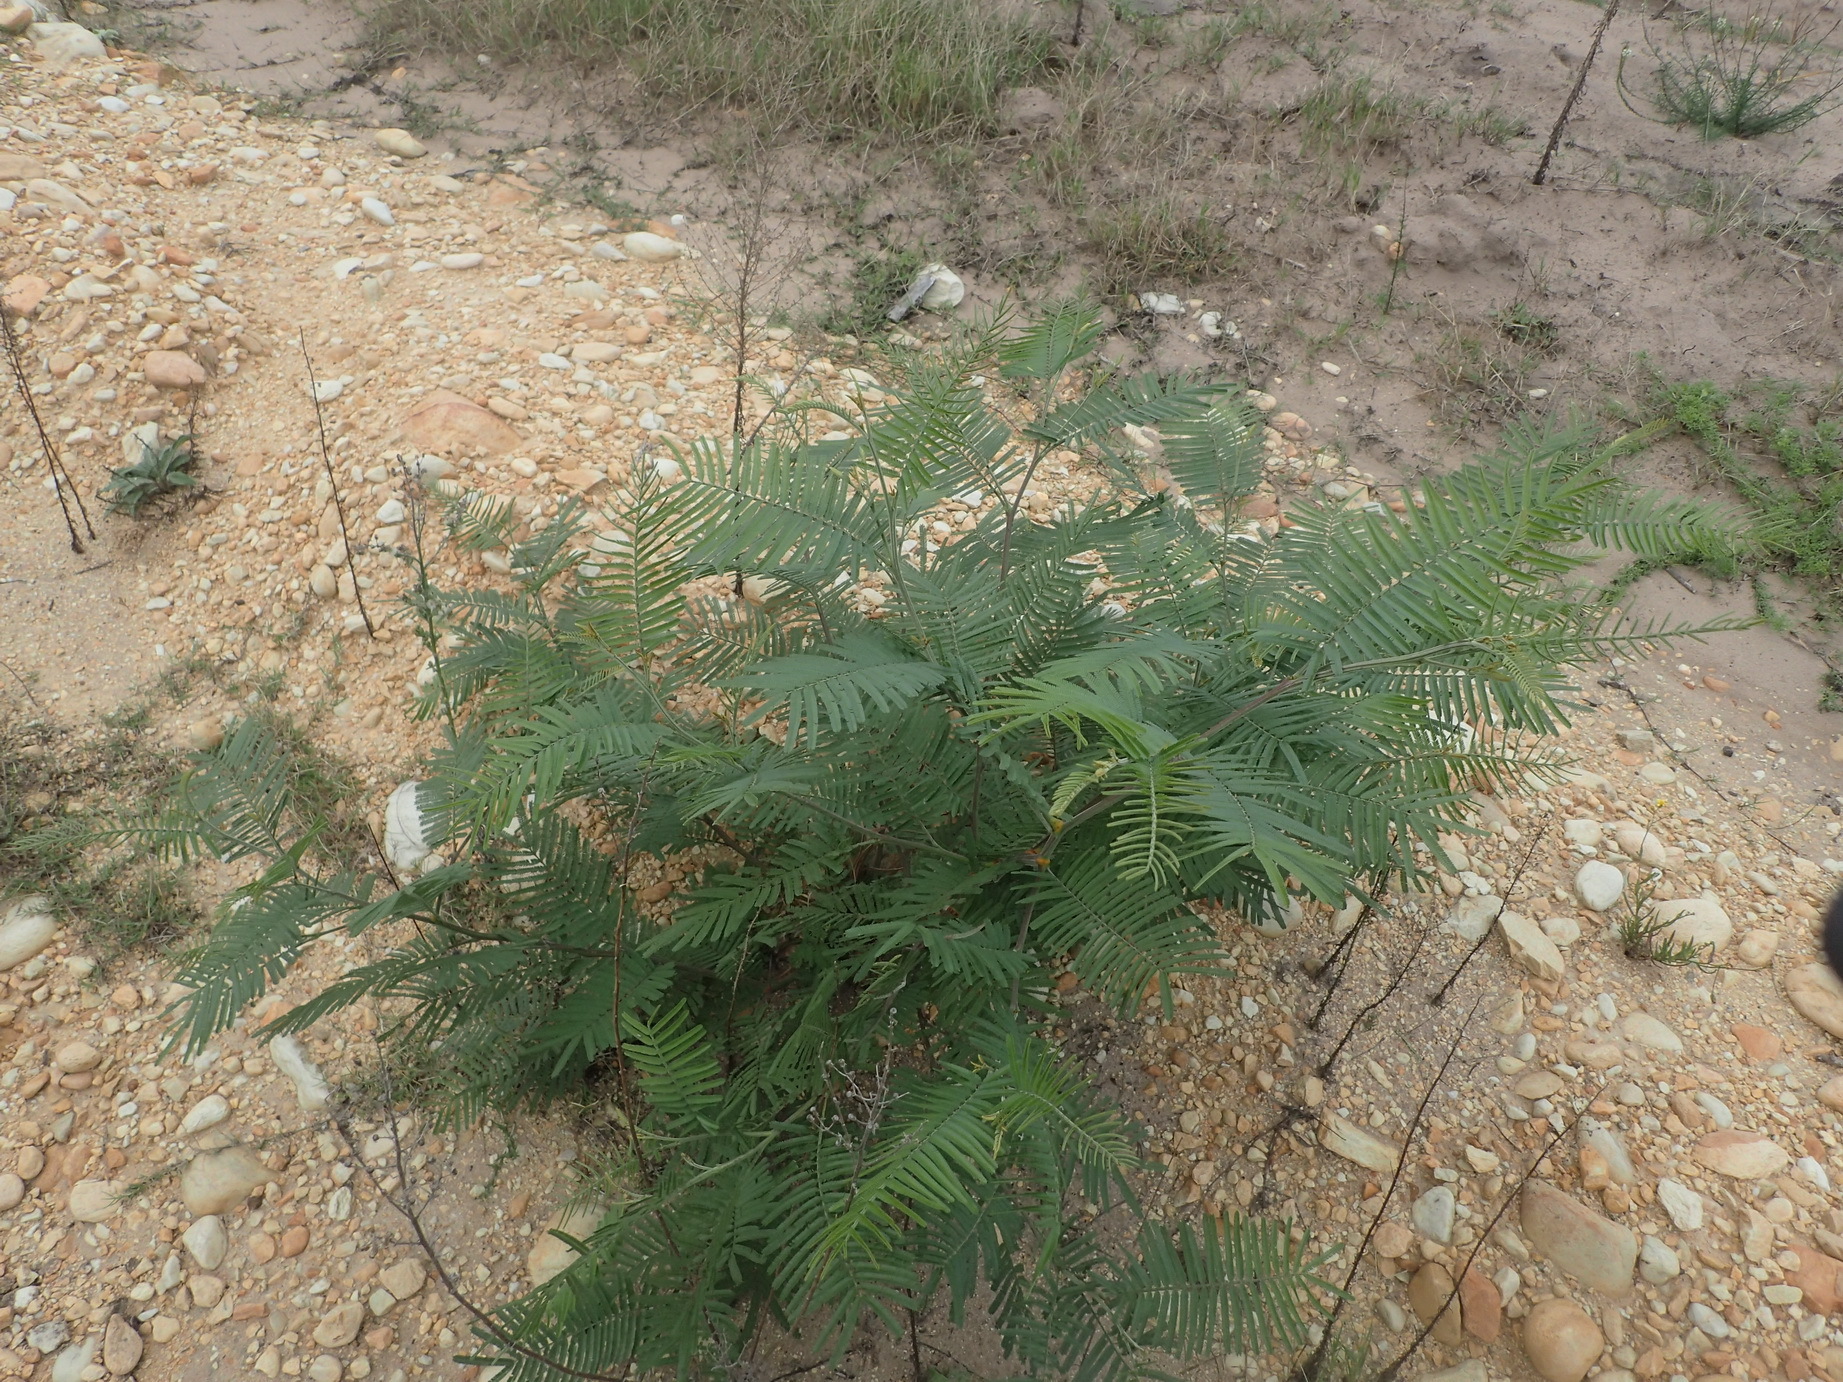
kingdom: Plantae
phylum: Tracheophyta
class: Magnoliopsida
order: Fabales
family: Fabaceae
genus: Acacia
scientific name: Acacia mearnsii
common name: Black wattle
